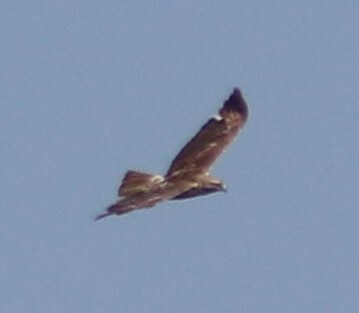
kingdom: Animalia
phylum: Chordata
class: Aves
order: Accipitriformes
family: Accipitridae
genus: Buteo
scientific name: Buteo jamaicensis
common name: Red-tailed hawk
